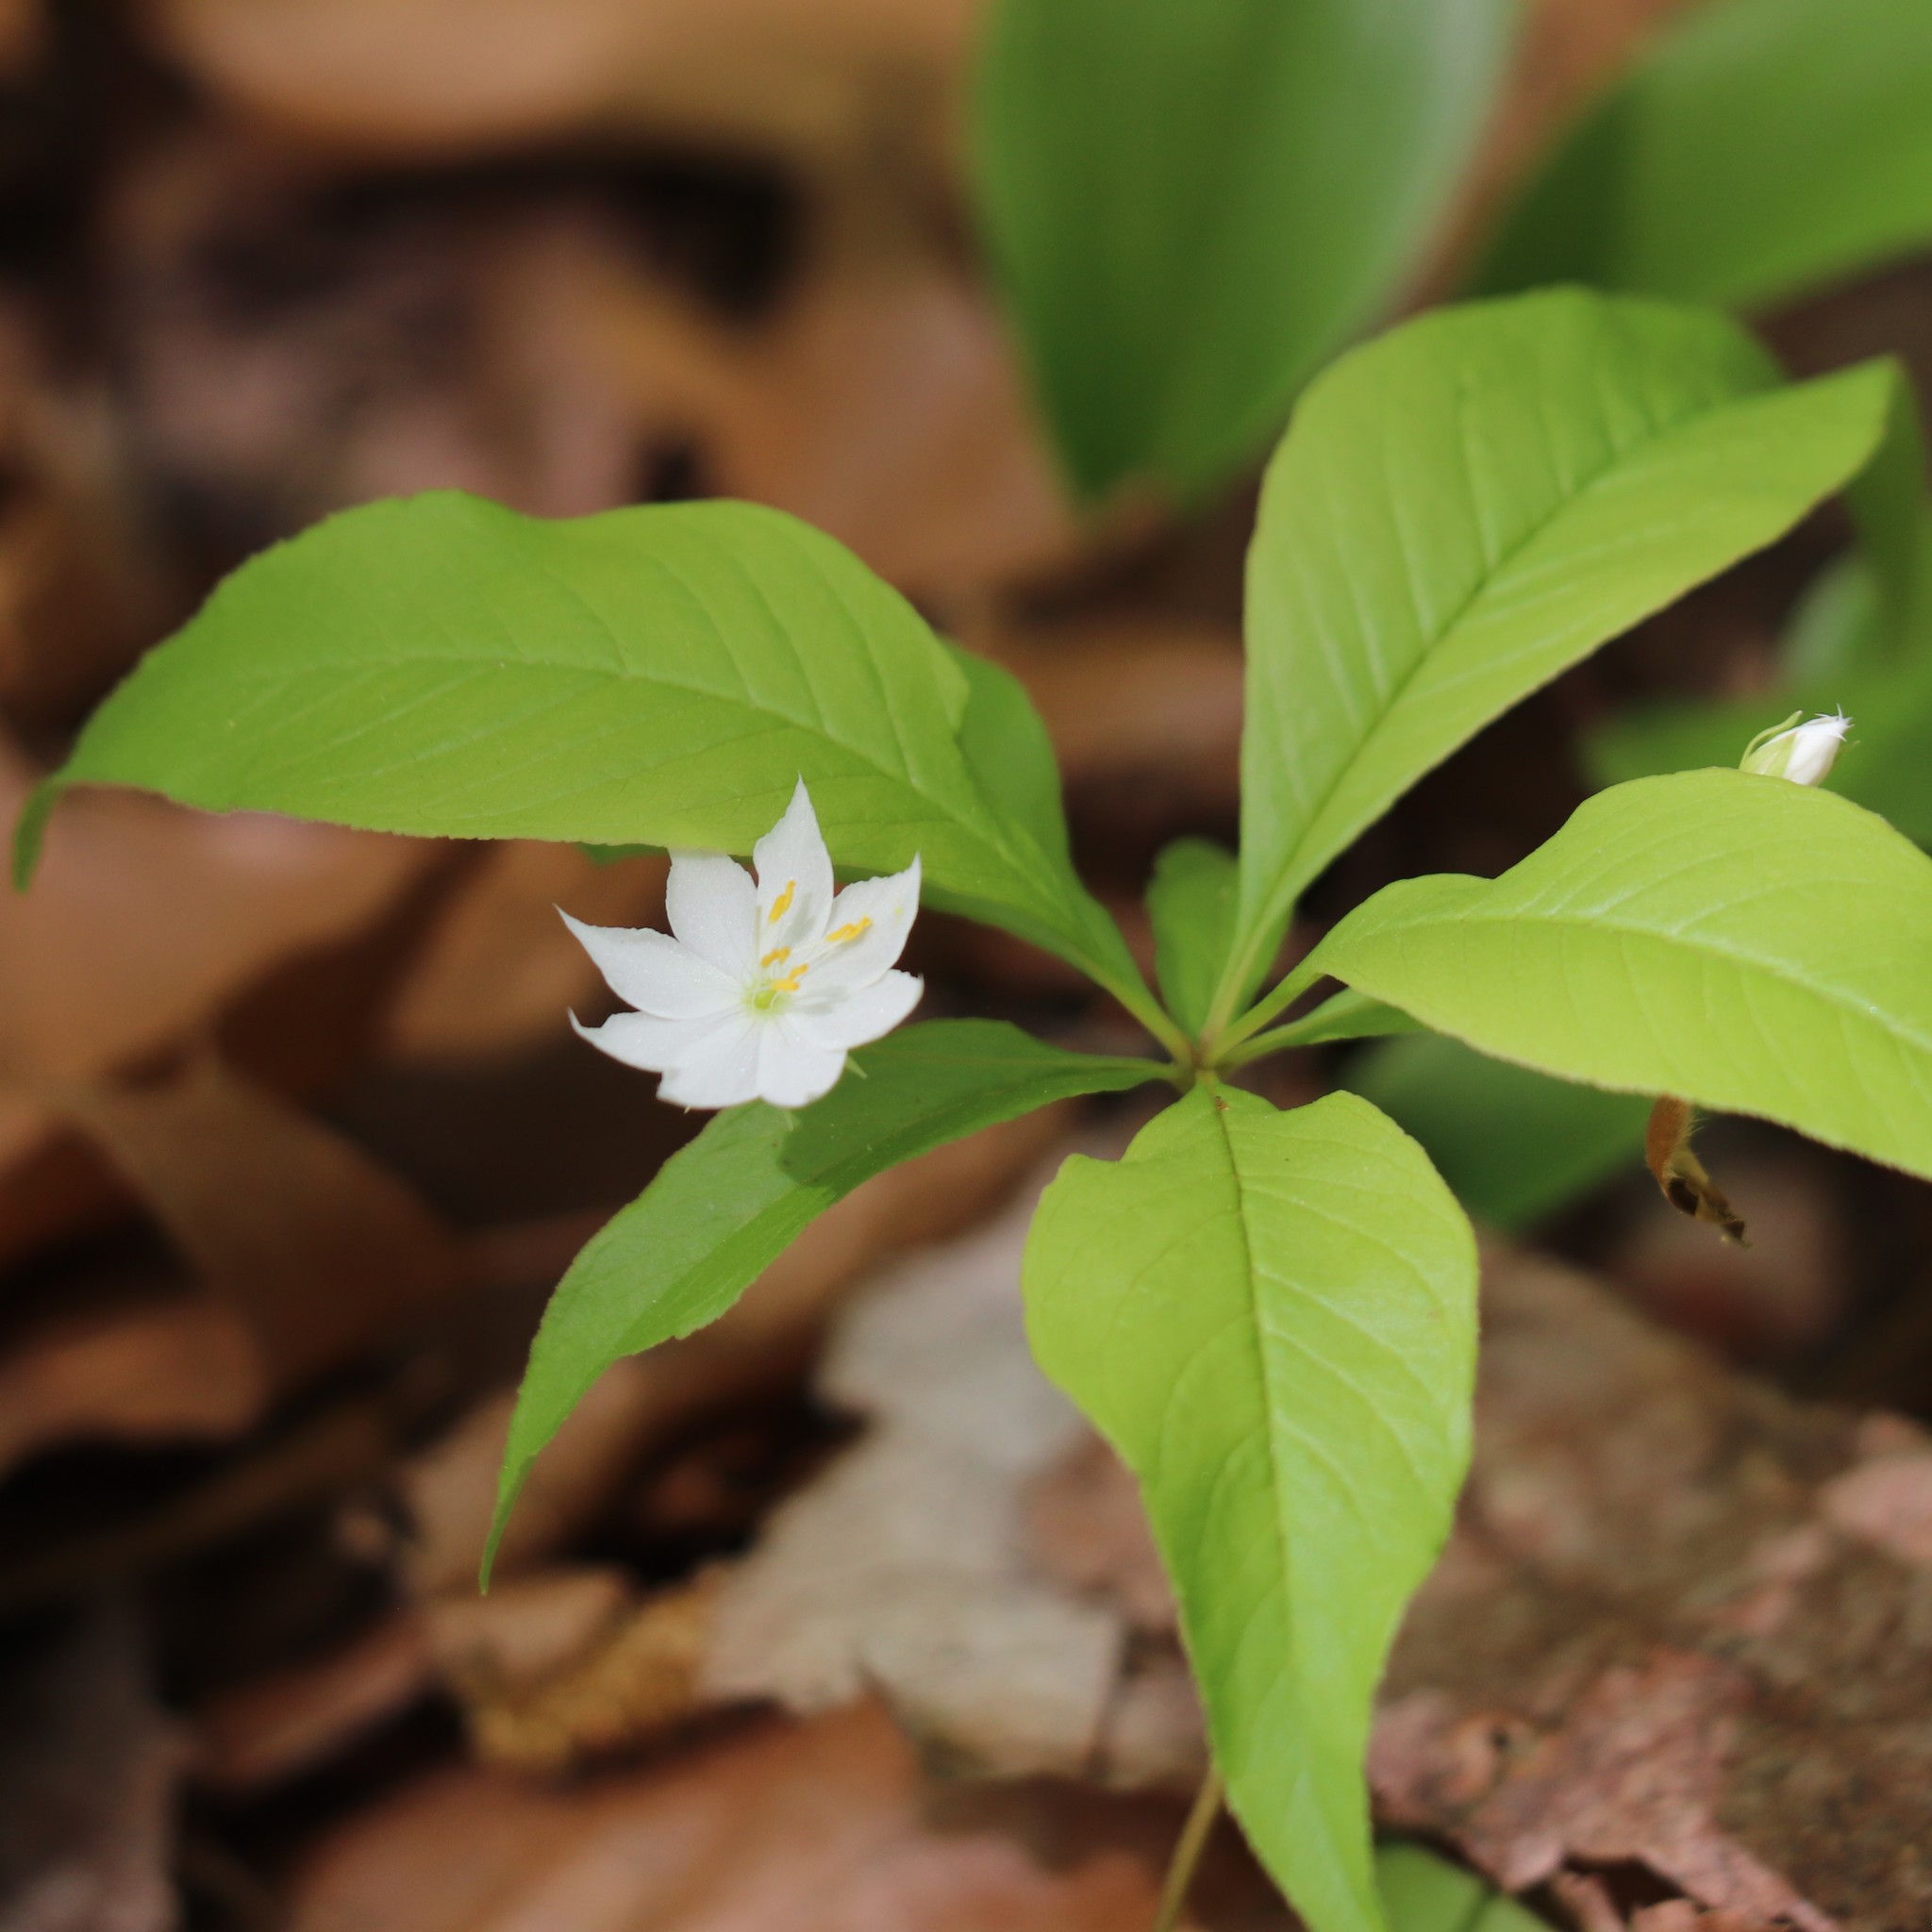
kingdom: Plantae
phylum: Tracheophyta
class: Magnoliopsida
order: Ericales
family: Primulaceae
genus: Lysimachia
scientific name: Lysimachia borealis
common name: American starflower
